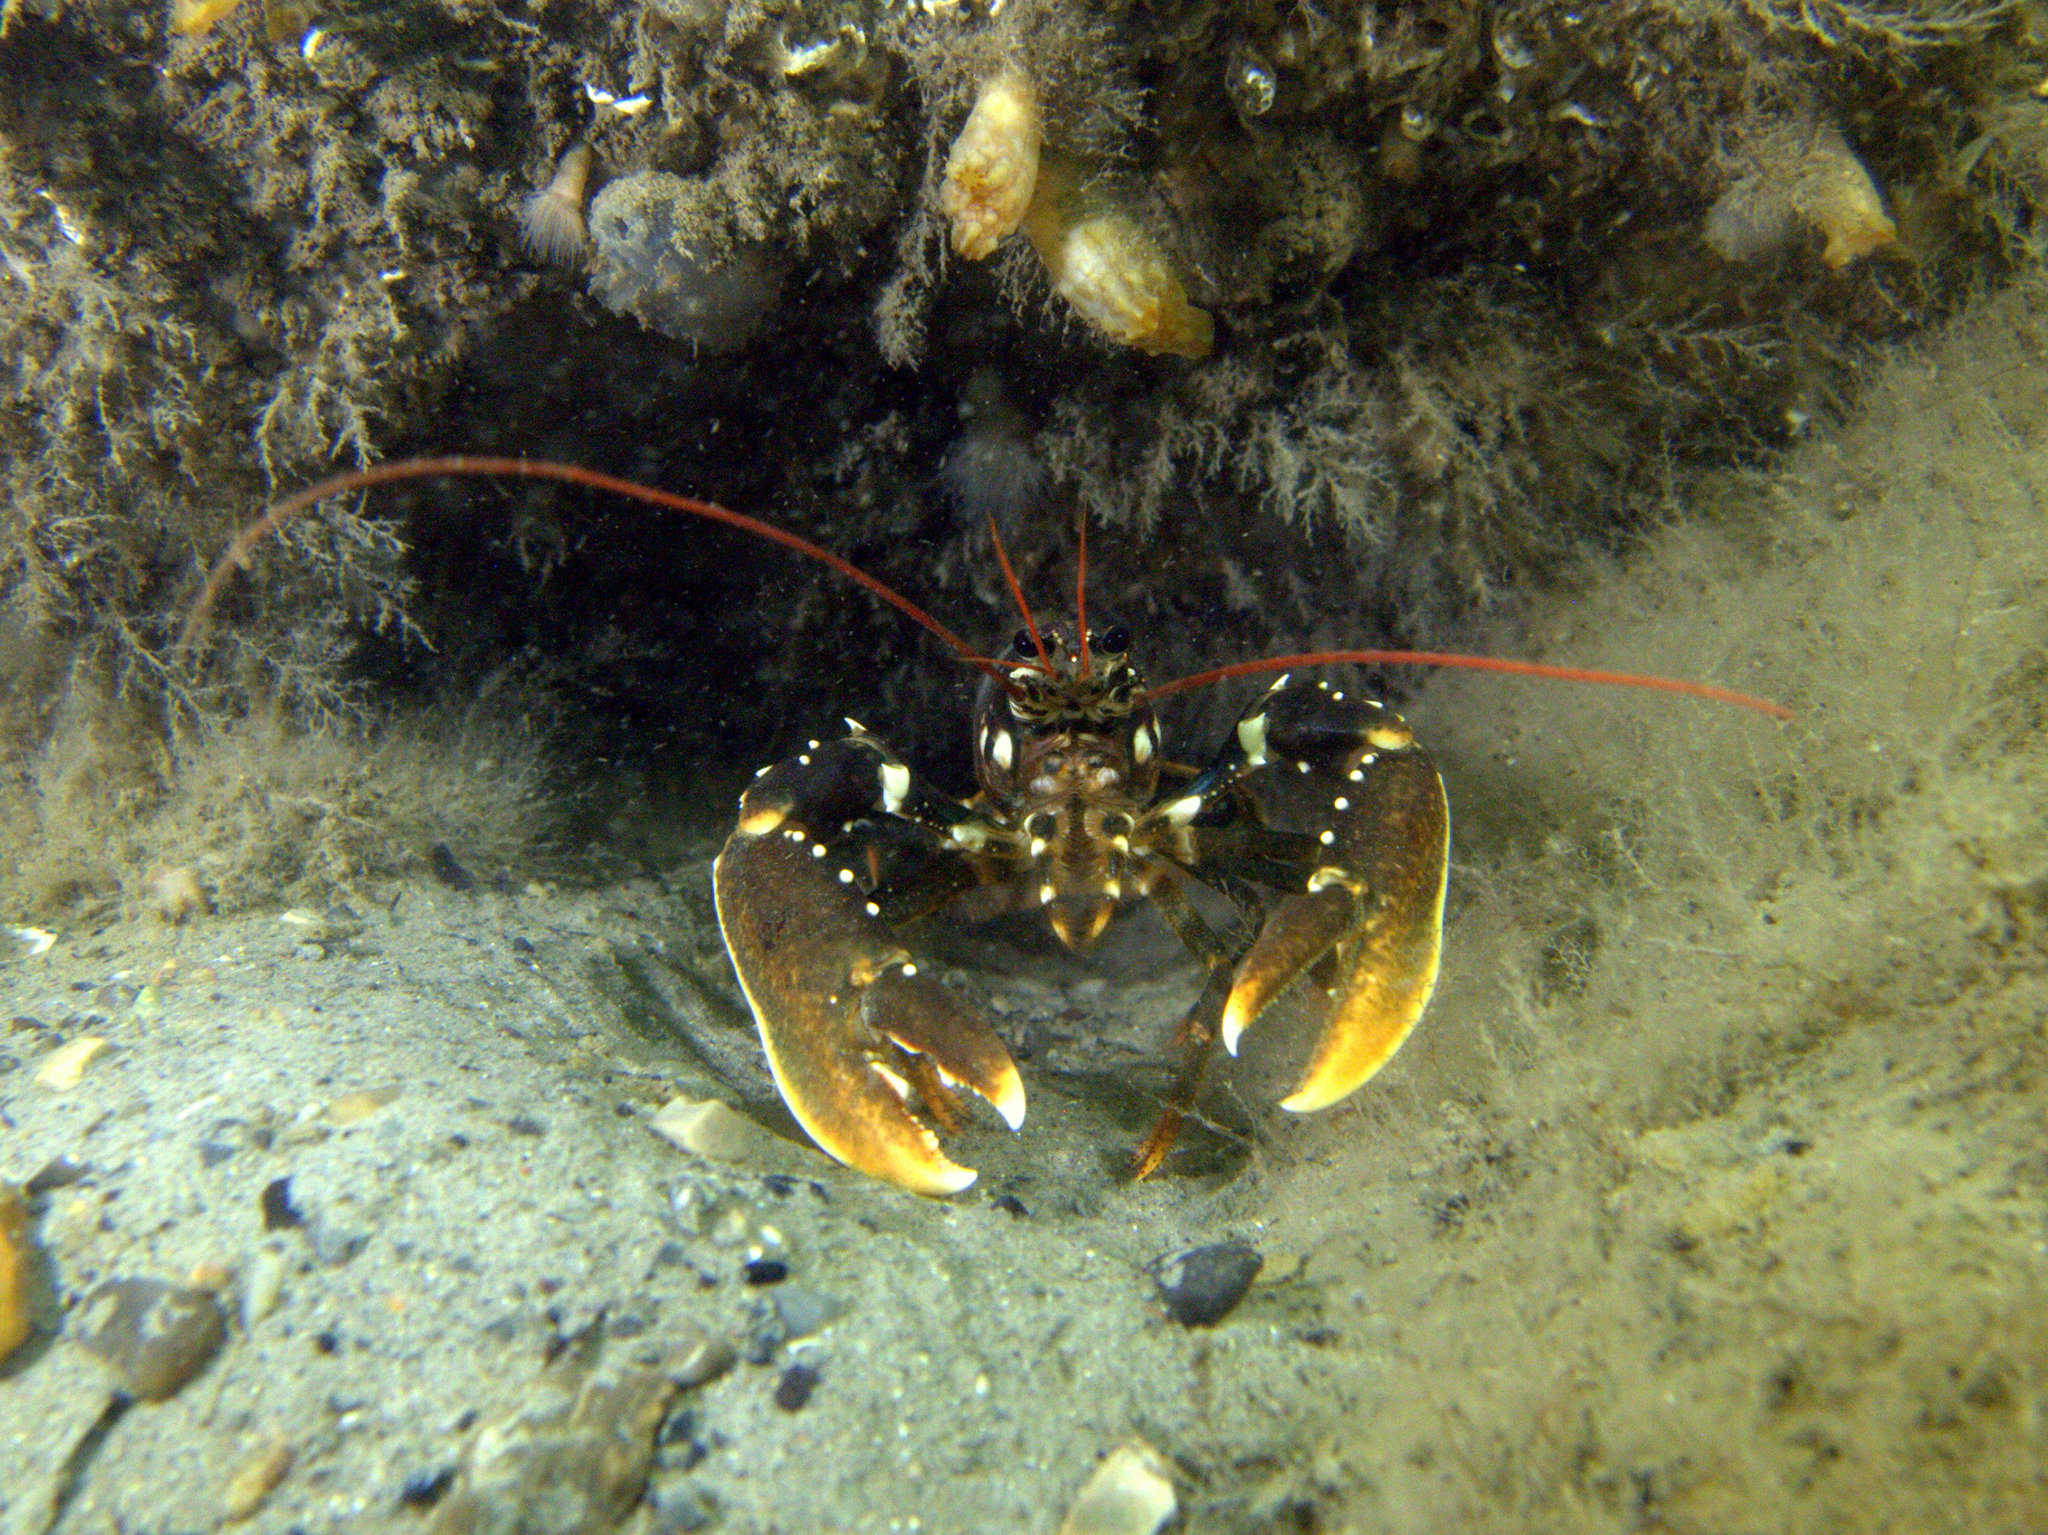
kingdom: Animalia
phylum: Arthropoda
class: Malacostraca
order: Decapoda
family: Nephropidae
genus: Homarus
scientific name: Homarus gammarus
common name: European lobster
